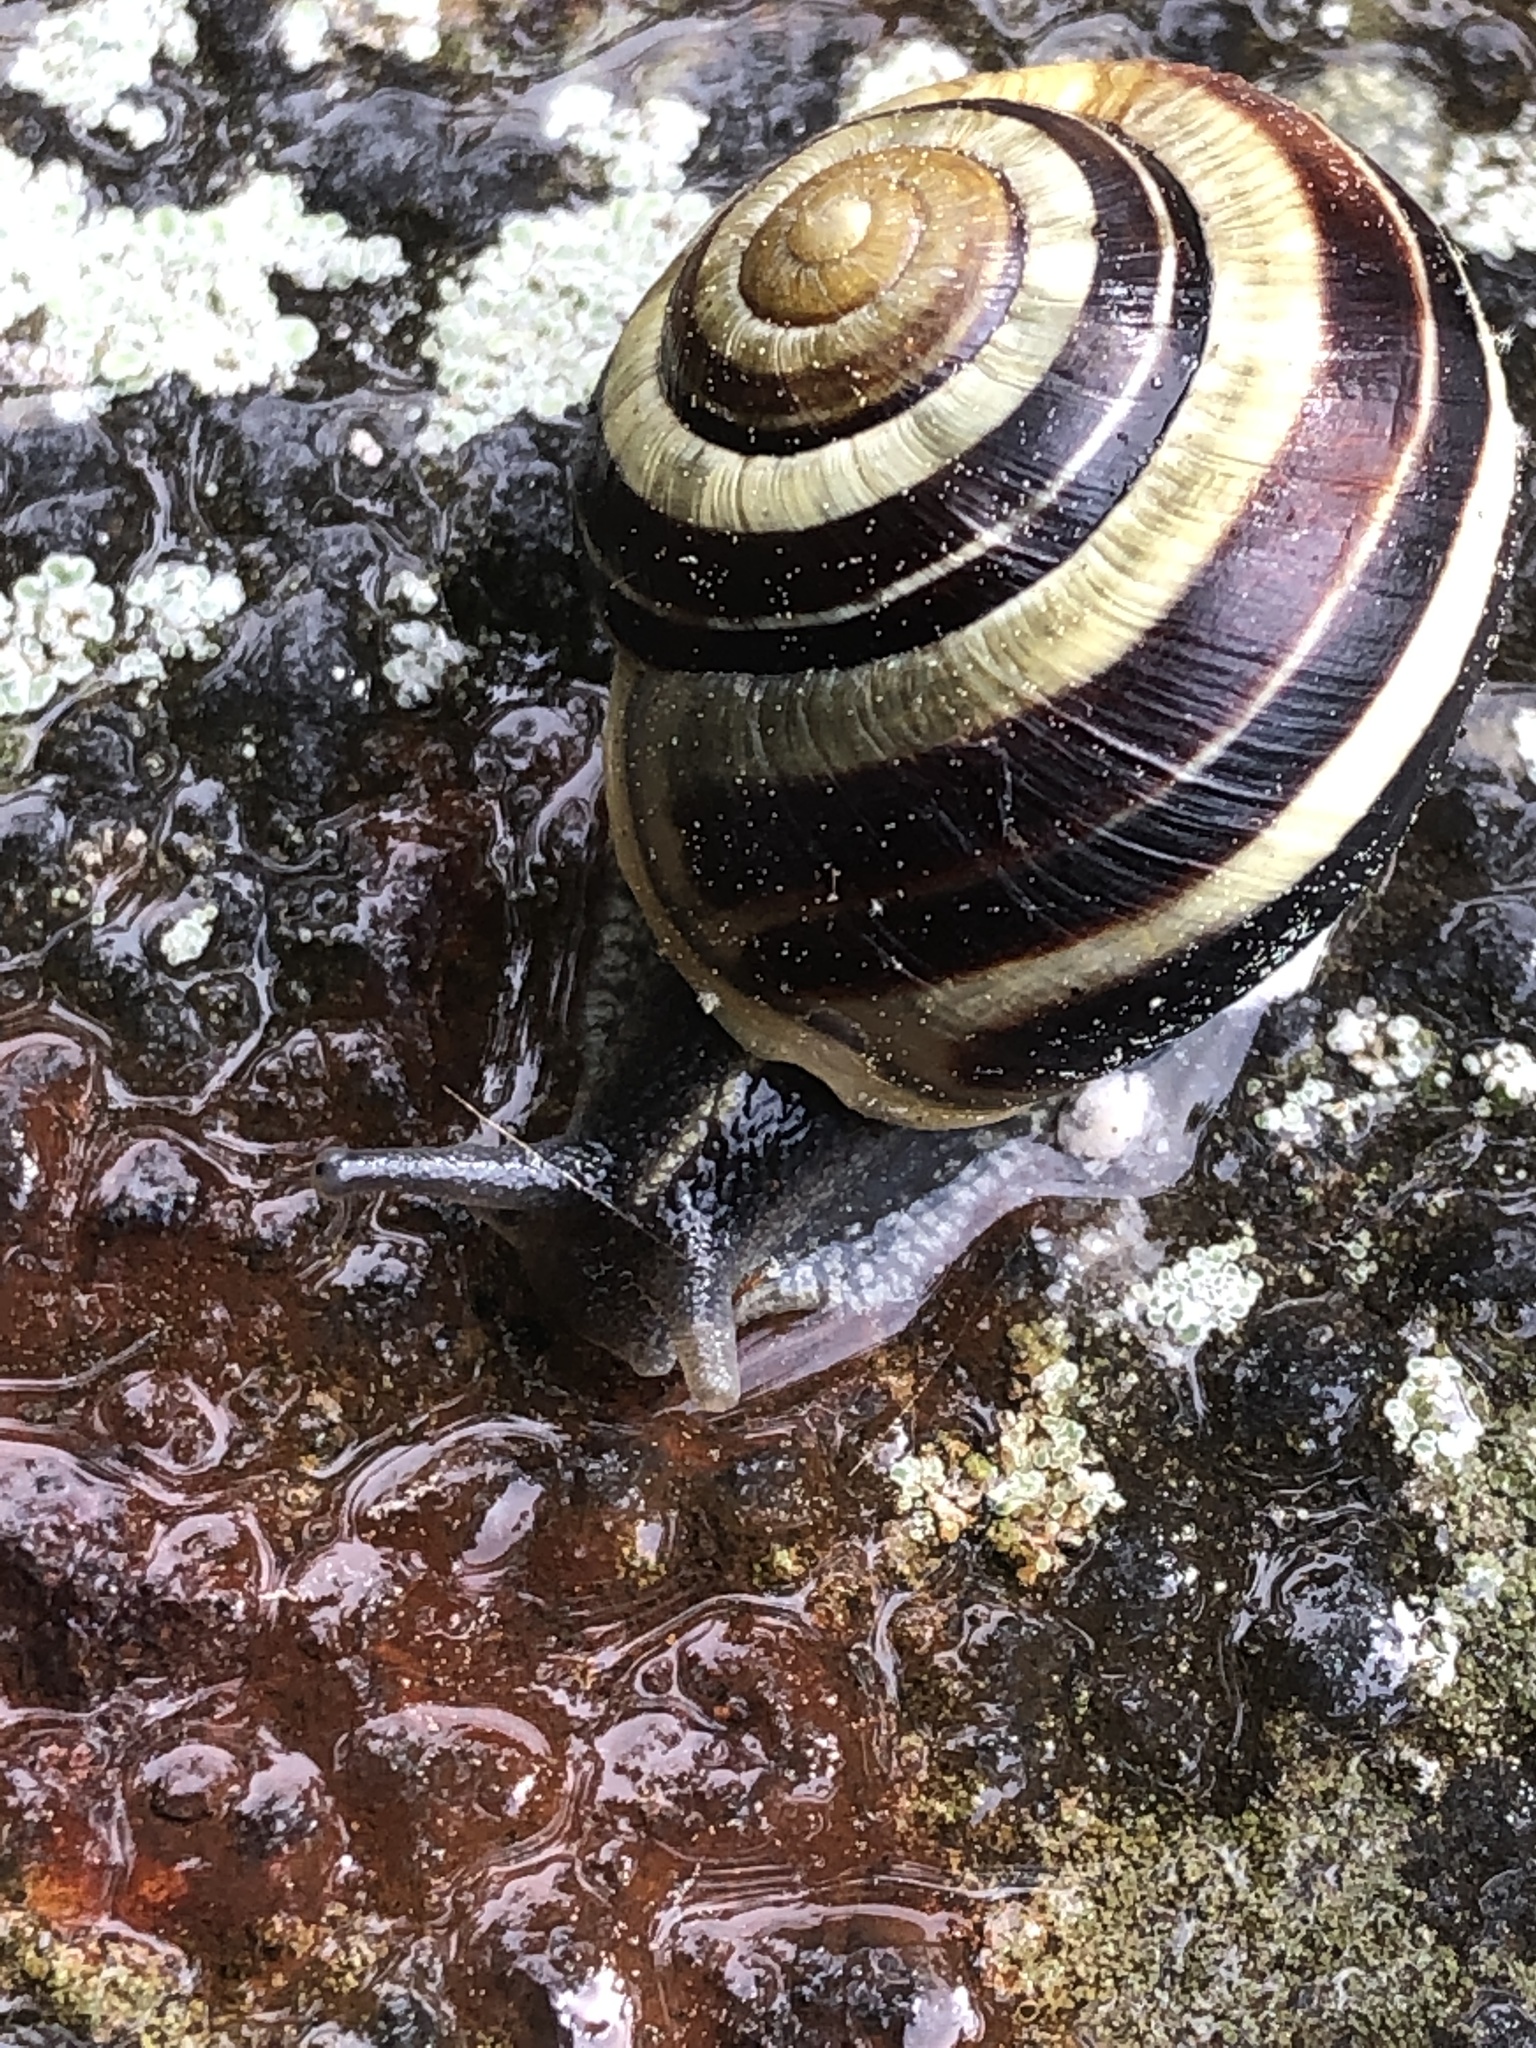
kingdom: Animalia
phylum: Mollusca
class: Gastropoda
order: Stylommatophora
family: Helicidae
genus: Cepaea
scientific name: Cepaea nemoralis
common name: Grovesnail
